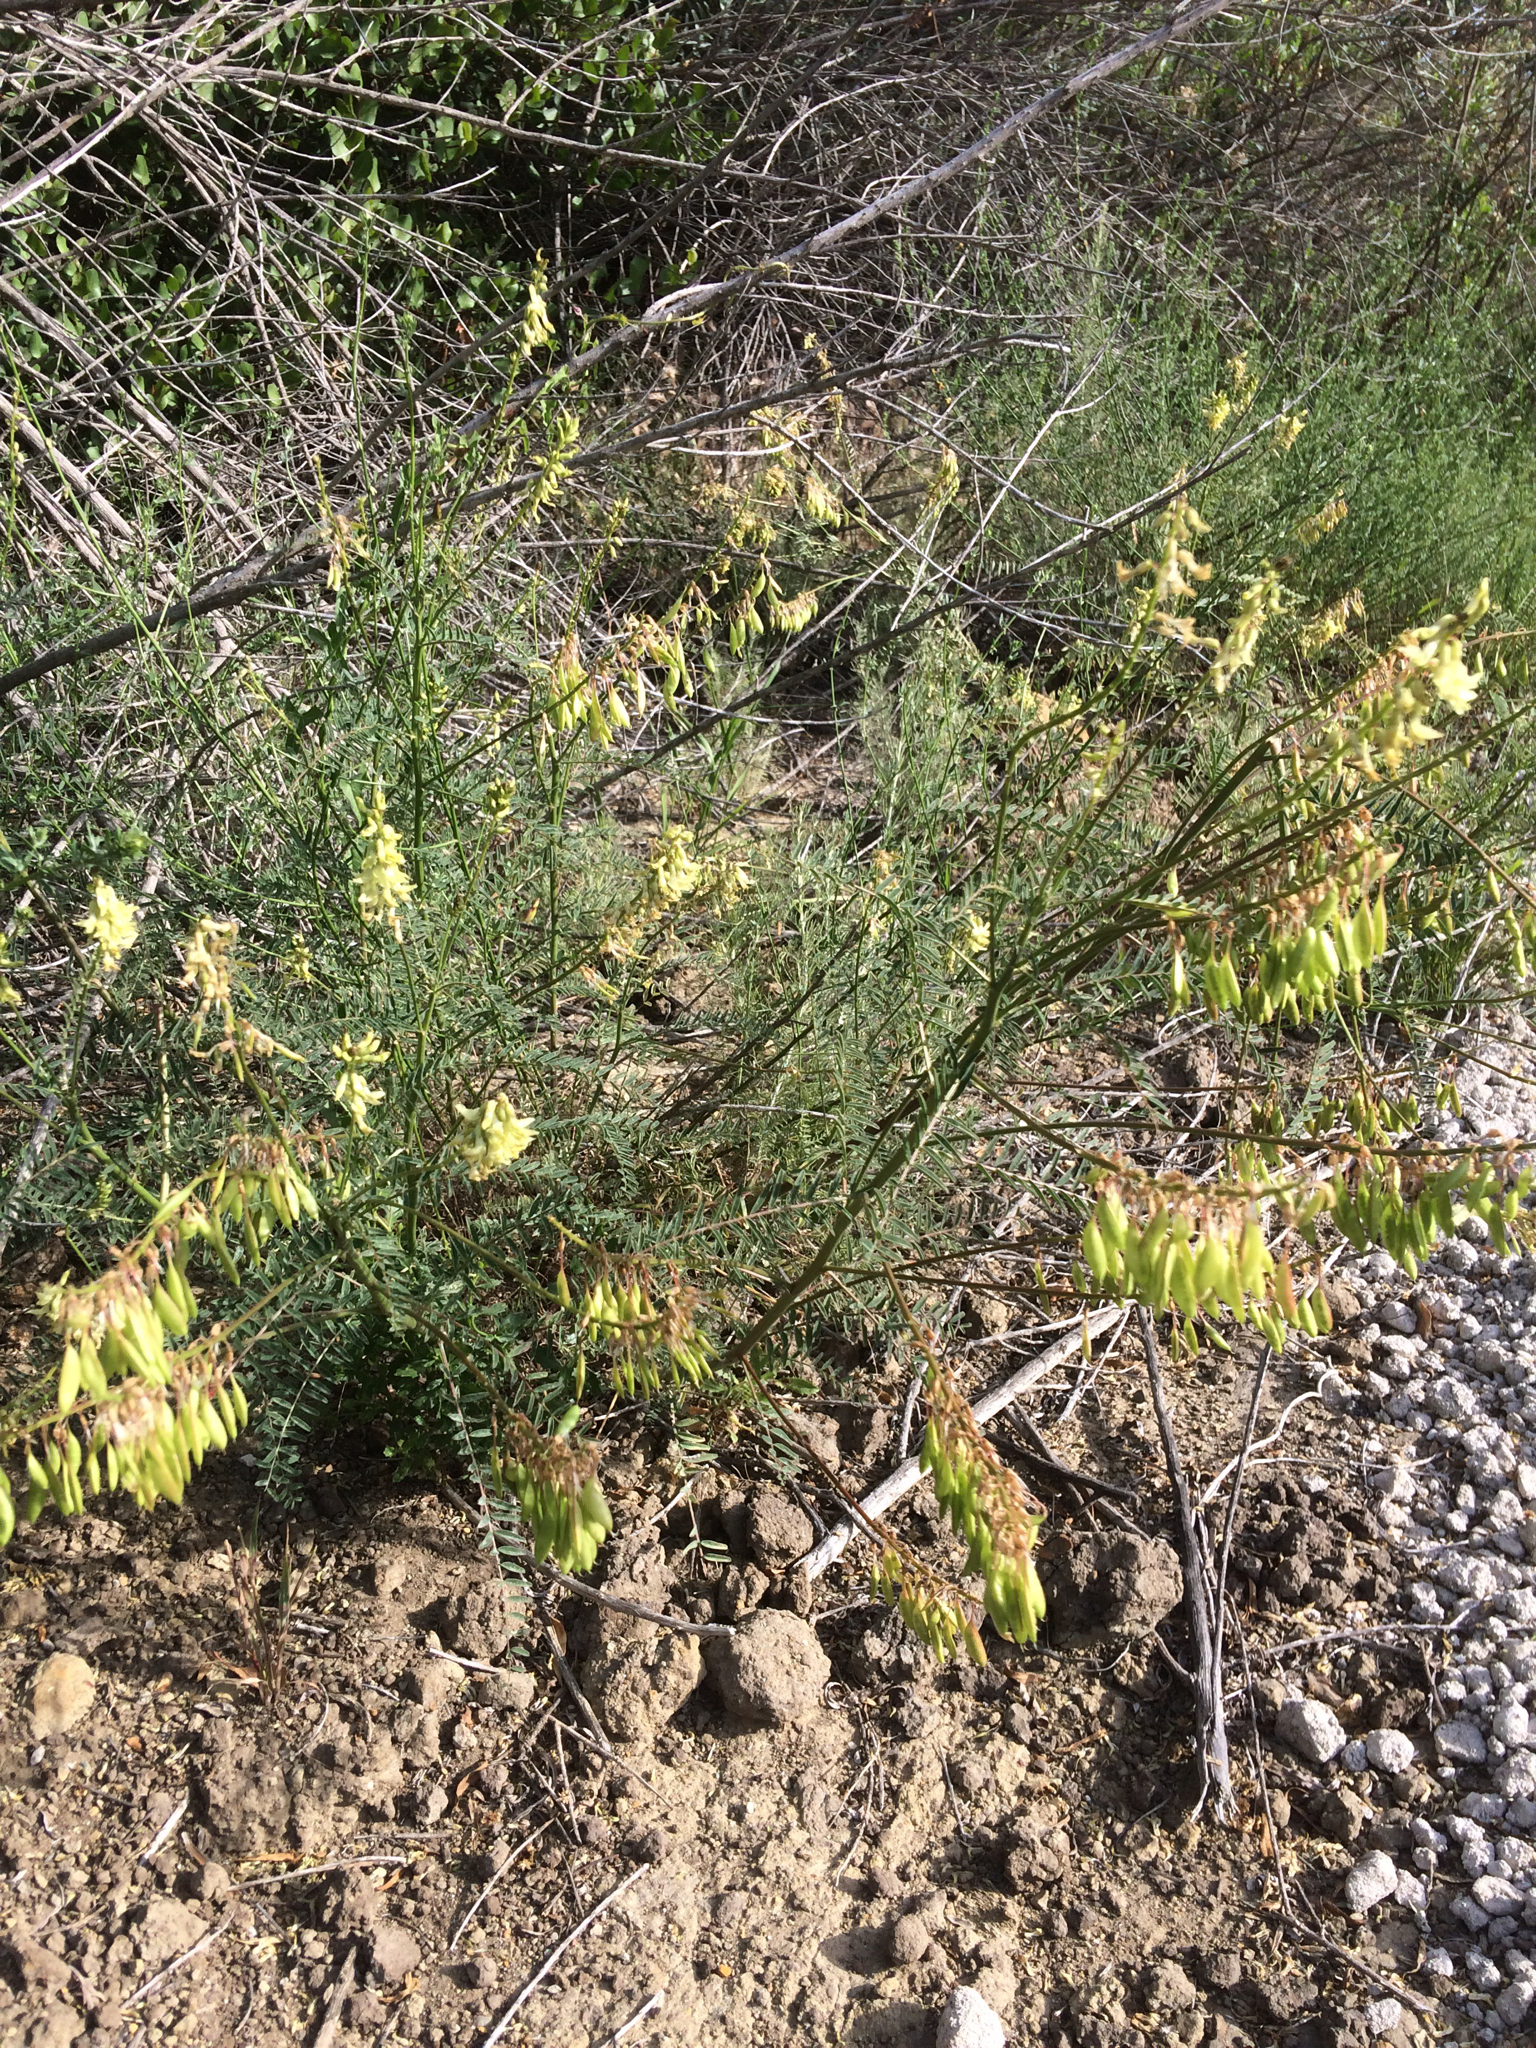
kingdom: Plantae
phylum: Tracheophyta
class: Magnoliopsida
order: Fabales
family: Fabaceae
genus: Astragalus
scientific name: Astragalus trichopodus
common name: Santa barbara milk-vetch
